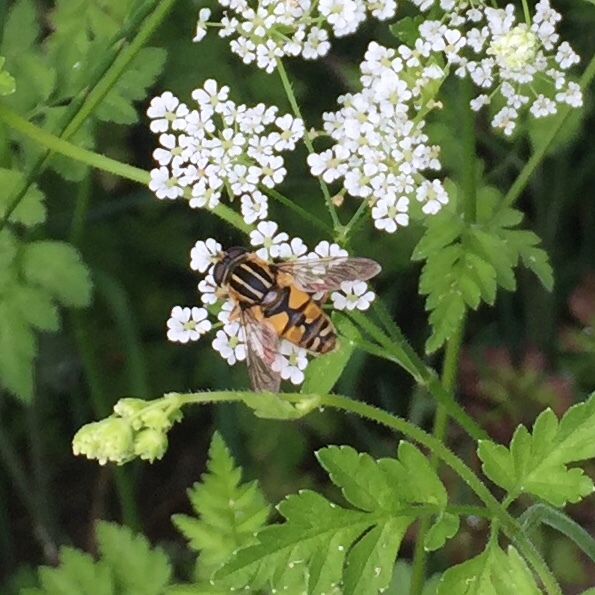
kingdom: Animalia
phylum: Arthropoda
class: Insecta
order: Diptera
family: Syrphidae
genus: Helophilus
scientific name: Helophilus pendulus
